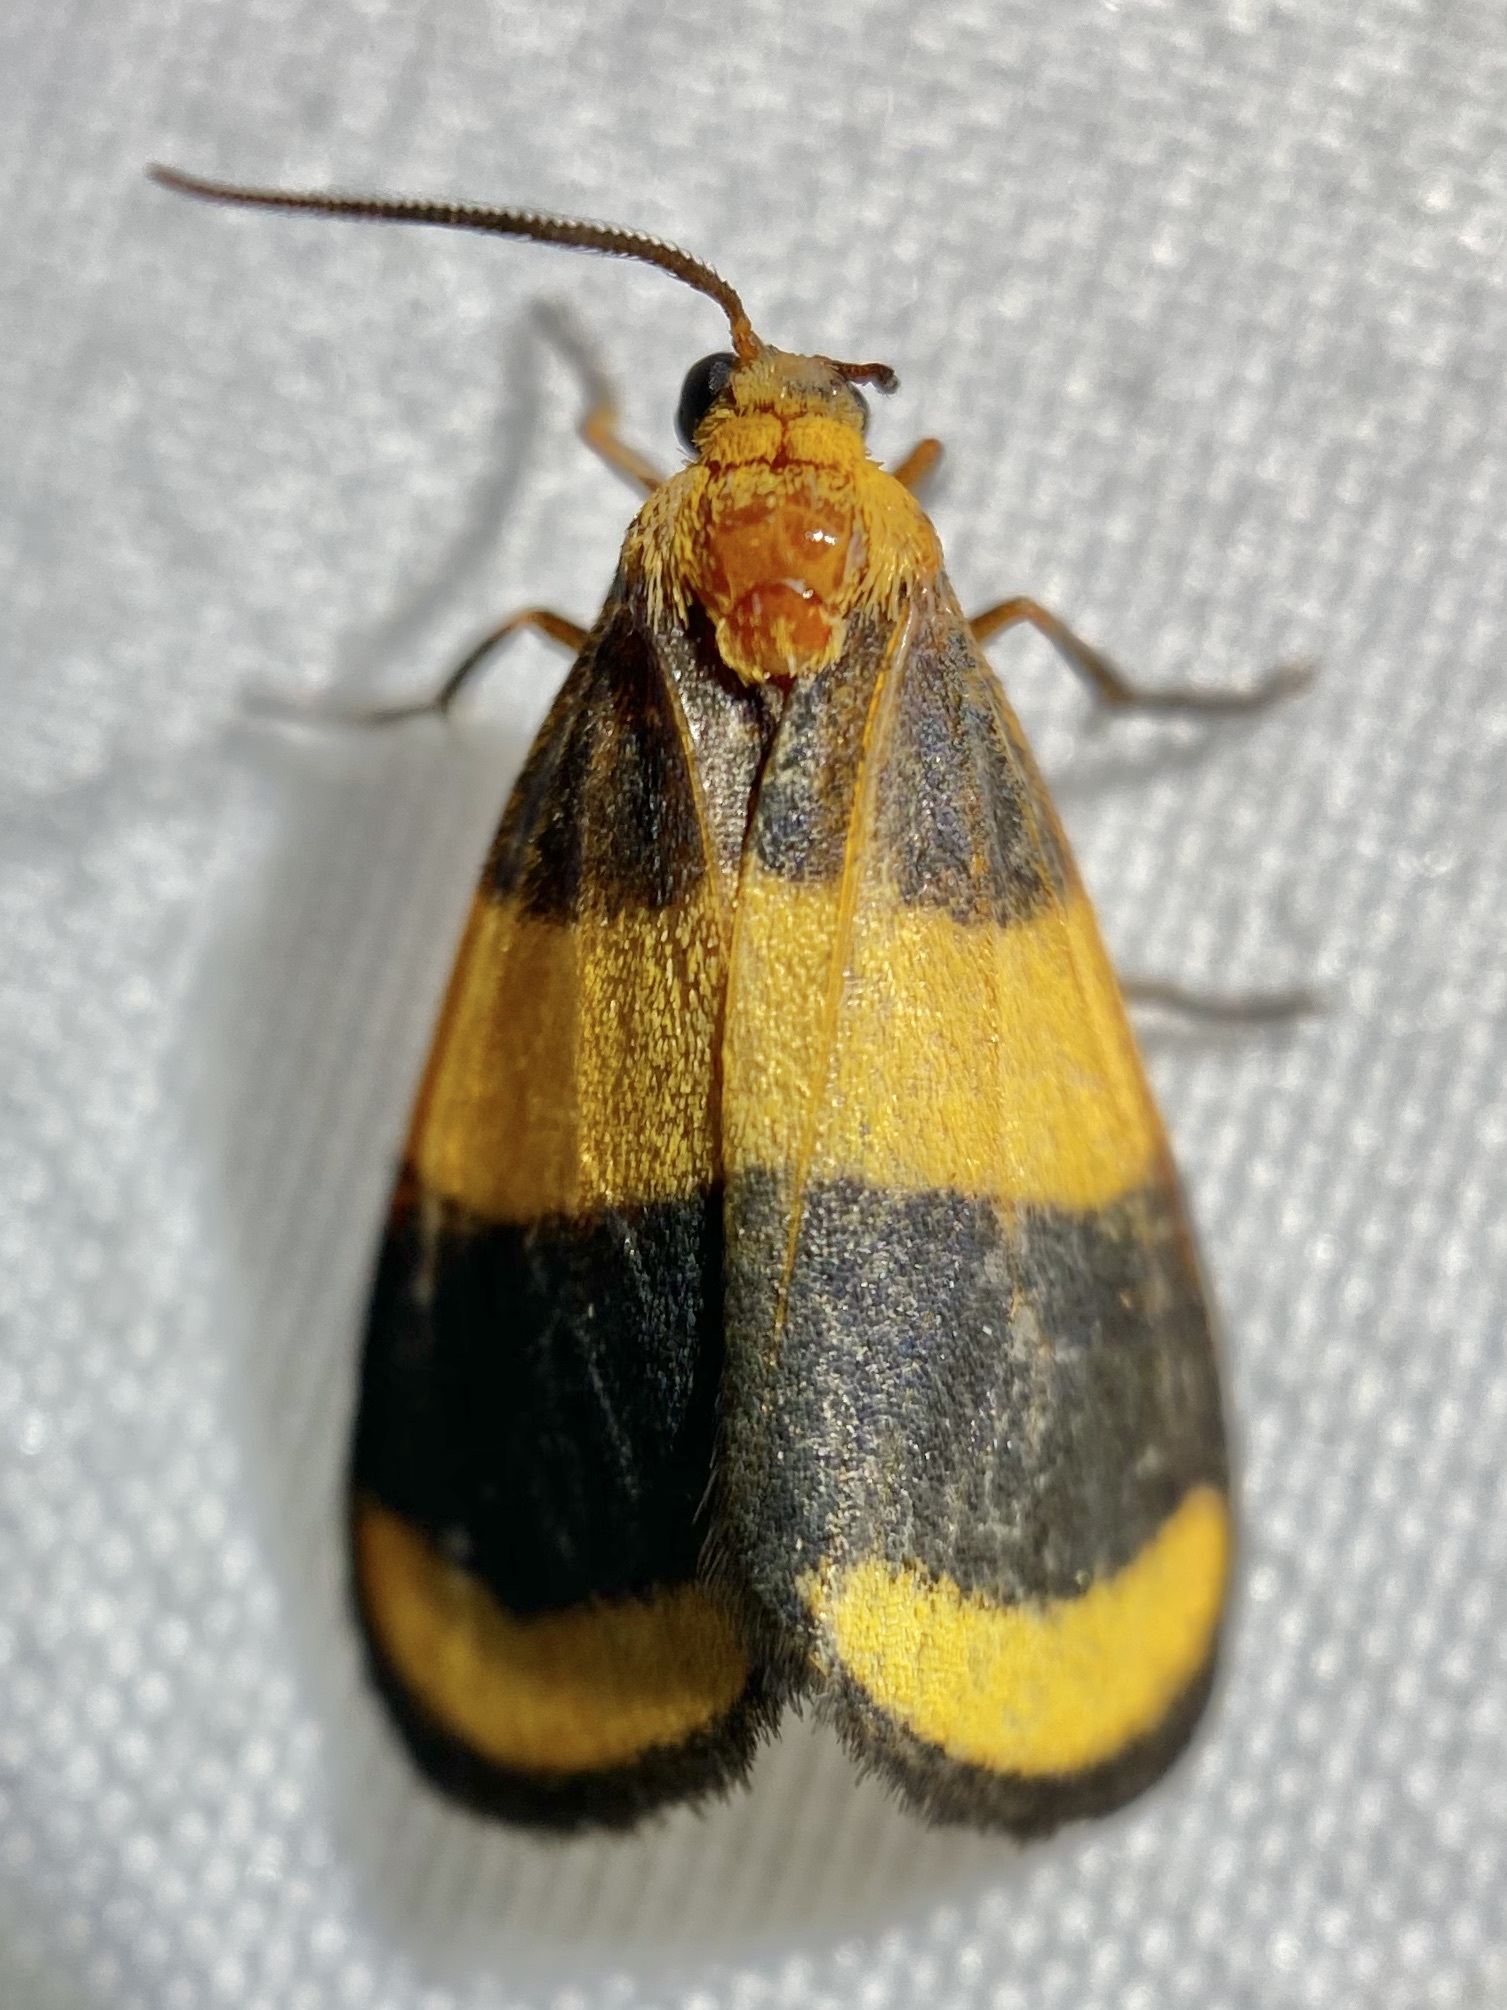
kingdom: Animalia
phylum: Arthropoda
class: Insecta
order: Lepidoptera
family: Erebidae
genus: Eudesmia
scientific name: Eudesmia arida
